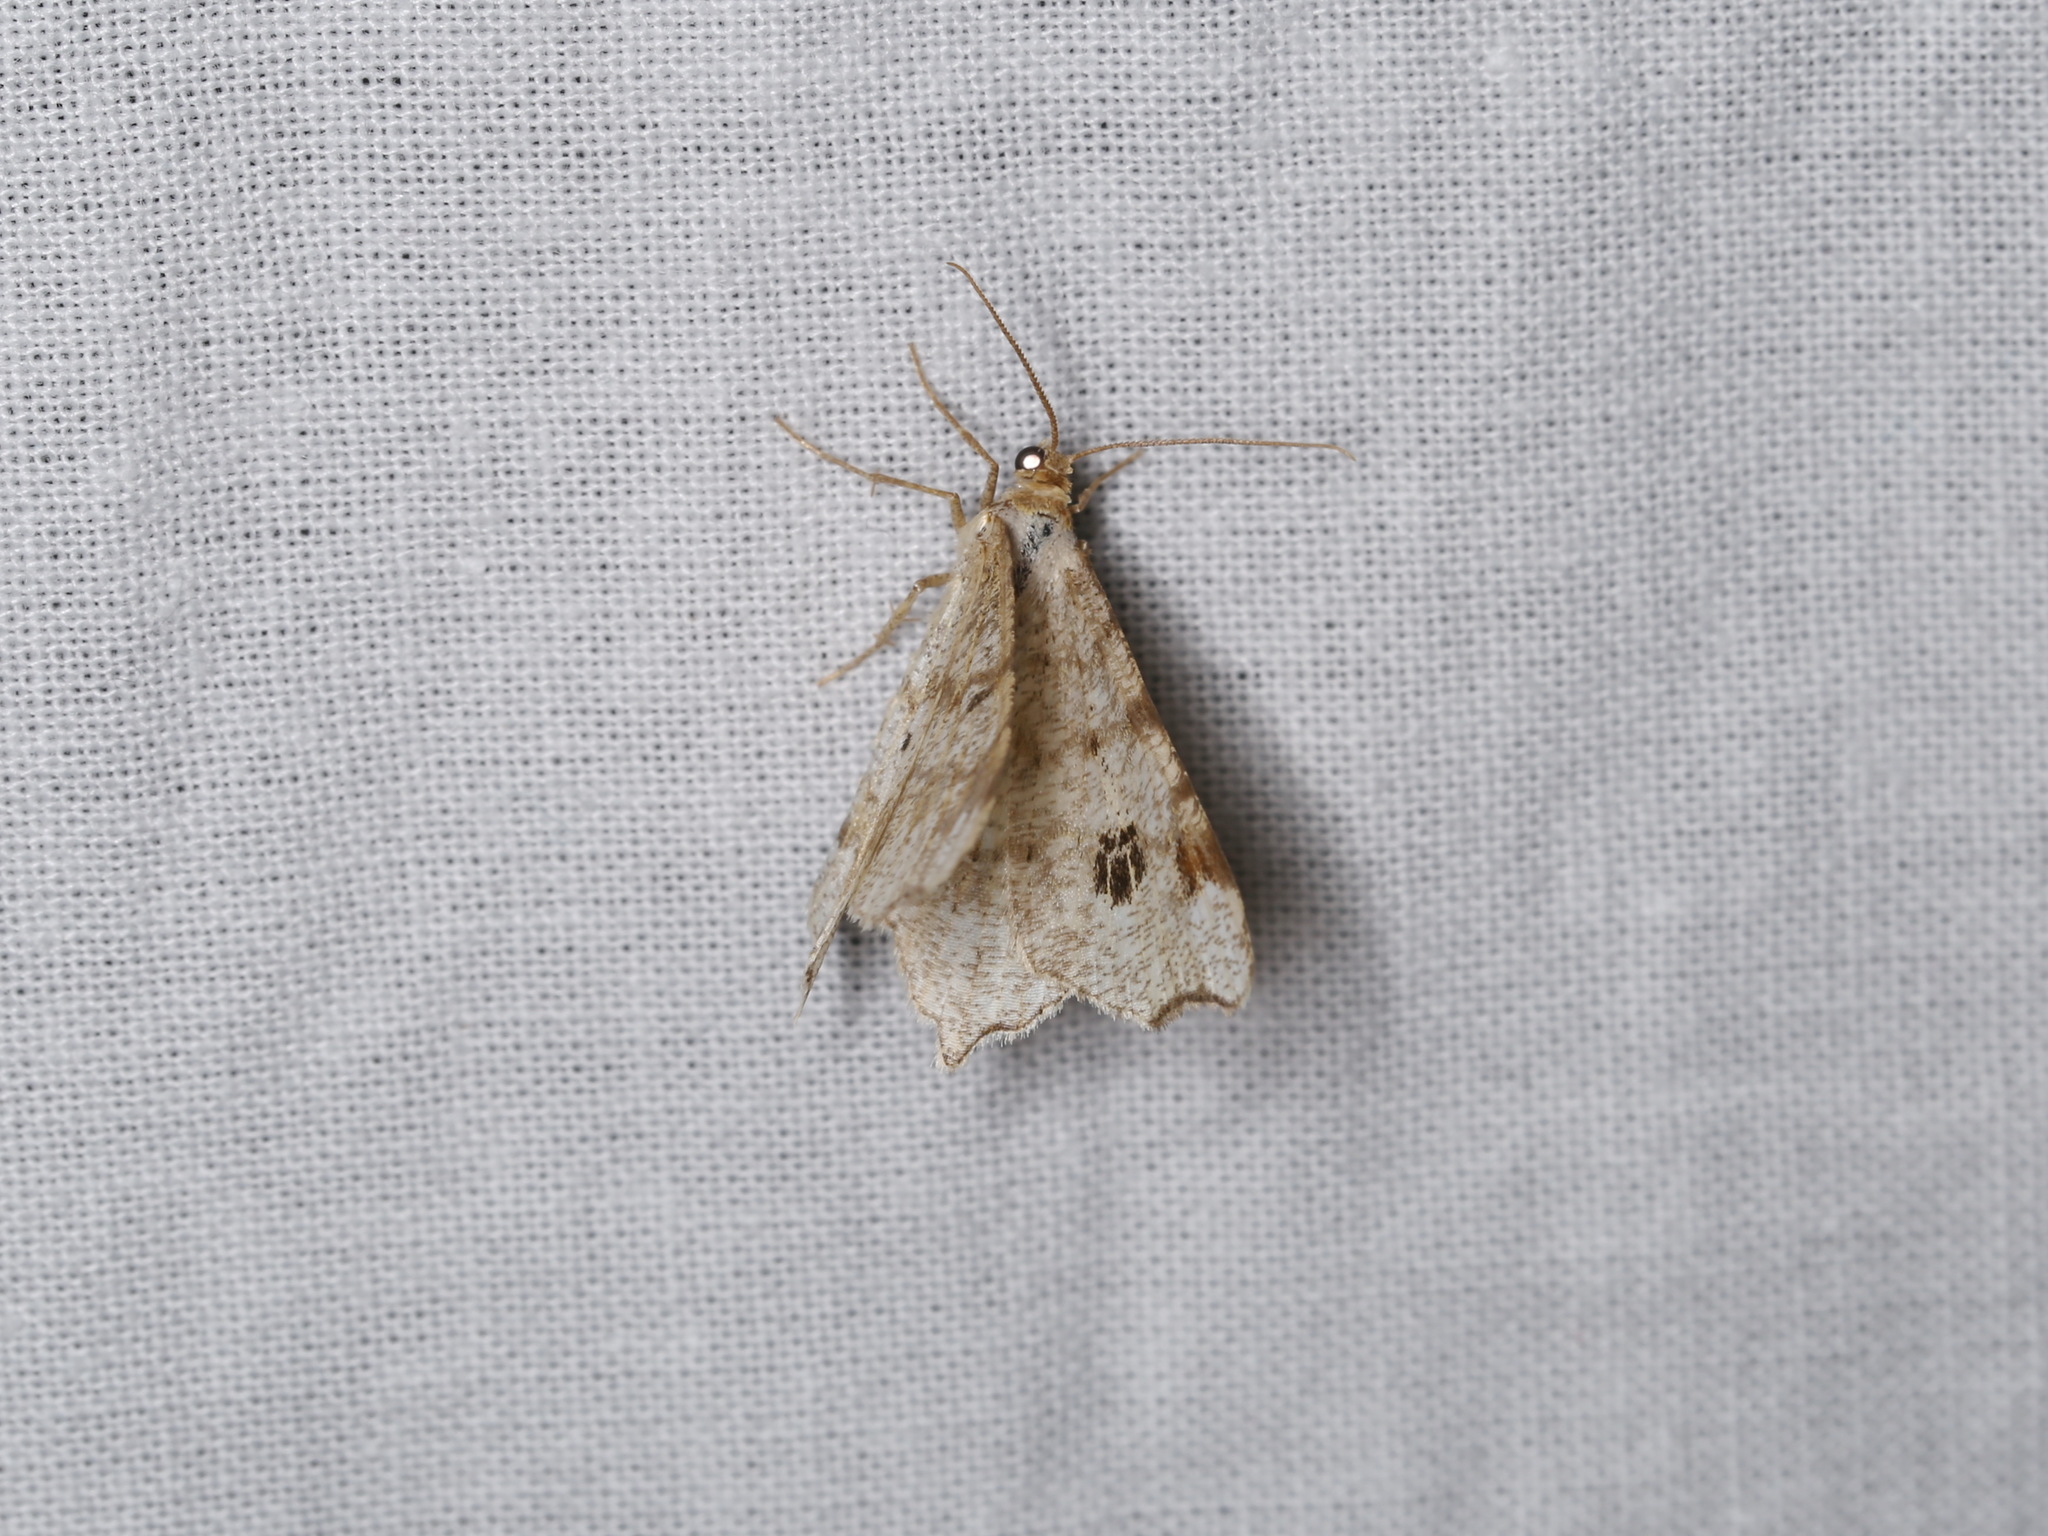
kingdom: Animalia
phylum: Arthropoda
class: Insecta
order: Lepidoptera
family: Geometridae
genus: Macaria
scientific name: Macaria notata
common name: Peacock moth
